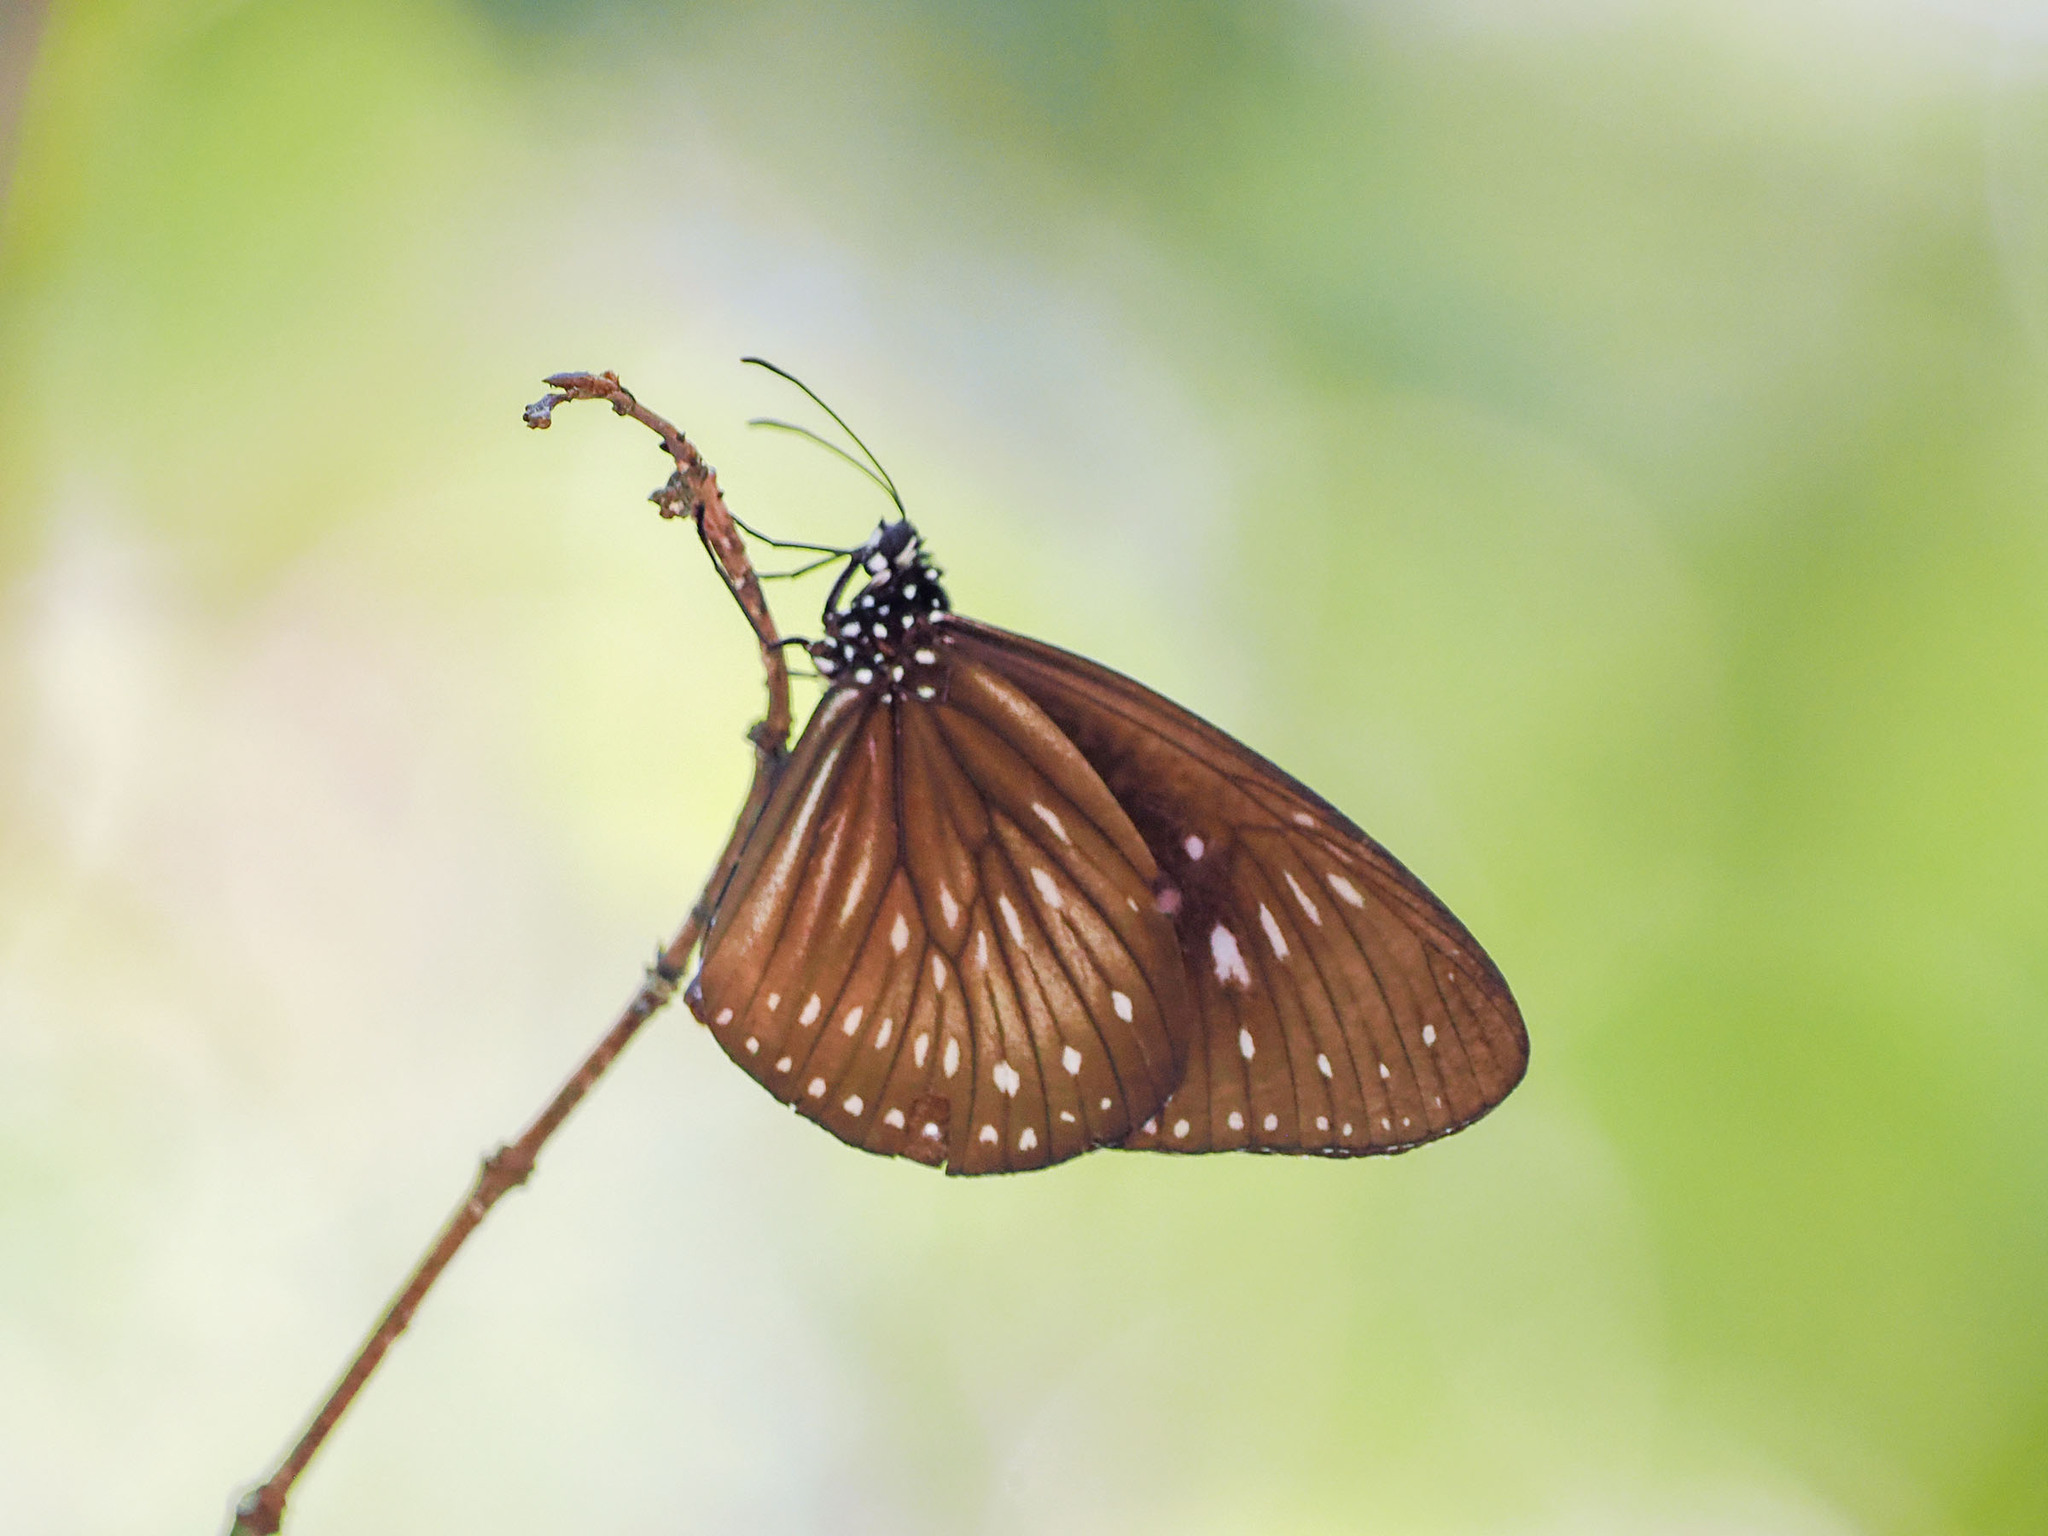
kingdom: Animalia
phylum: Arthropoda
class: Insecta
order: Lepidoptera
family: Nymphalidae
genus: Euploea
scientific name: Euploea algea
